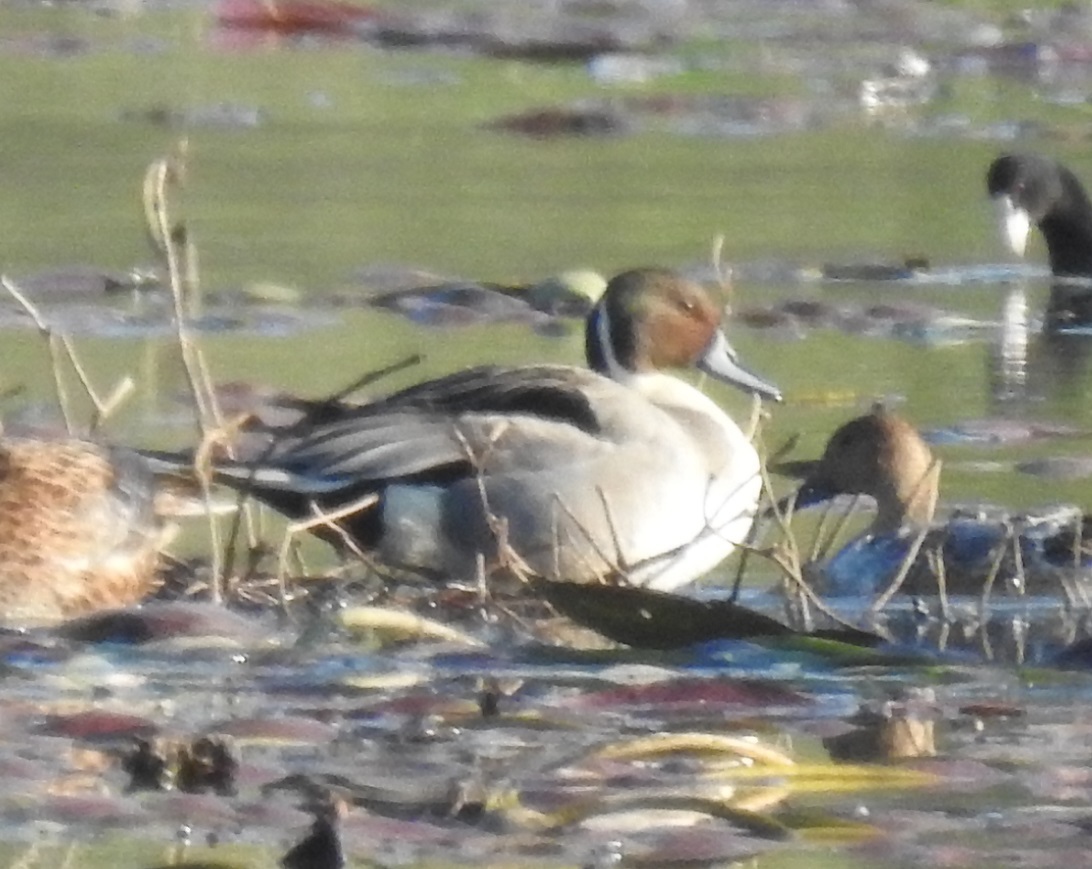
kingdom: Animalia
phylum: Chordata
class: Aves
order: Anseriformes
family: Anatidae
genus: Anas
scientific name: Anas acuta
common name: Northern pintail
